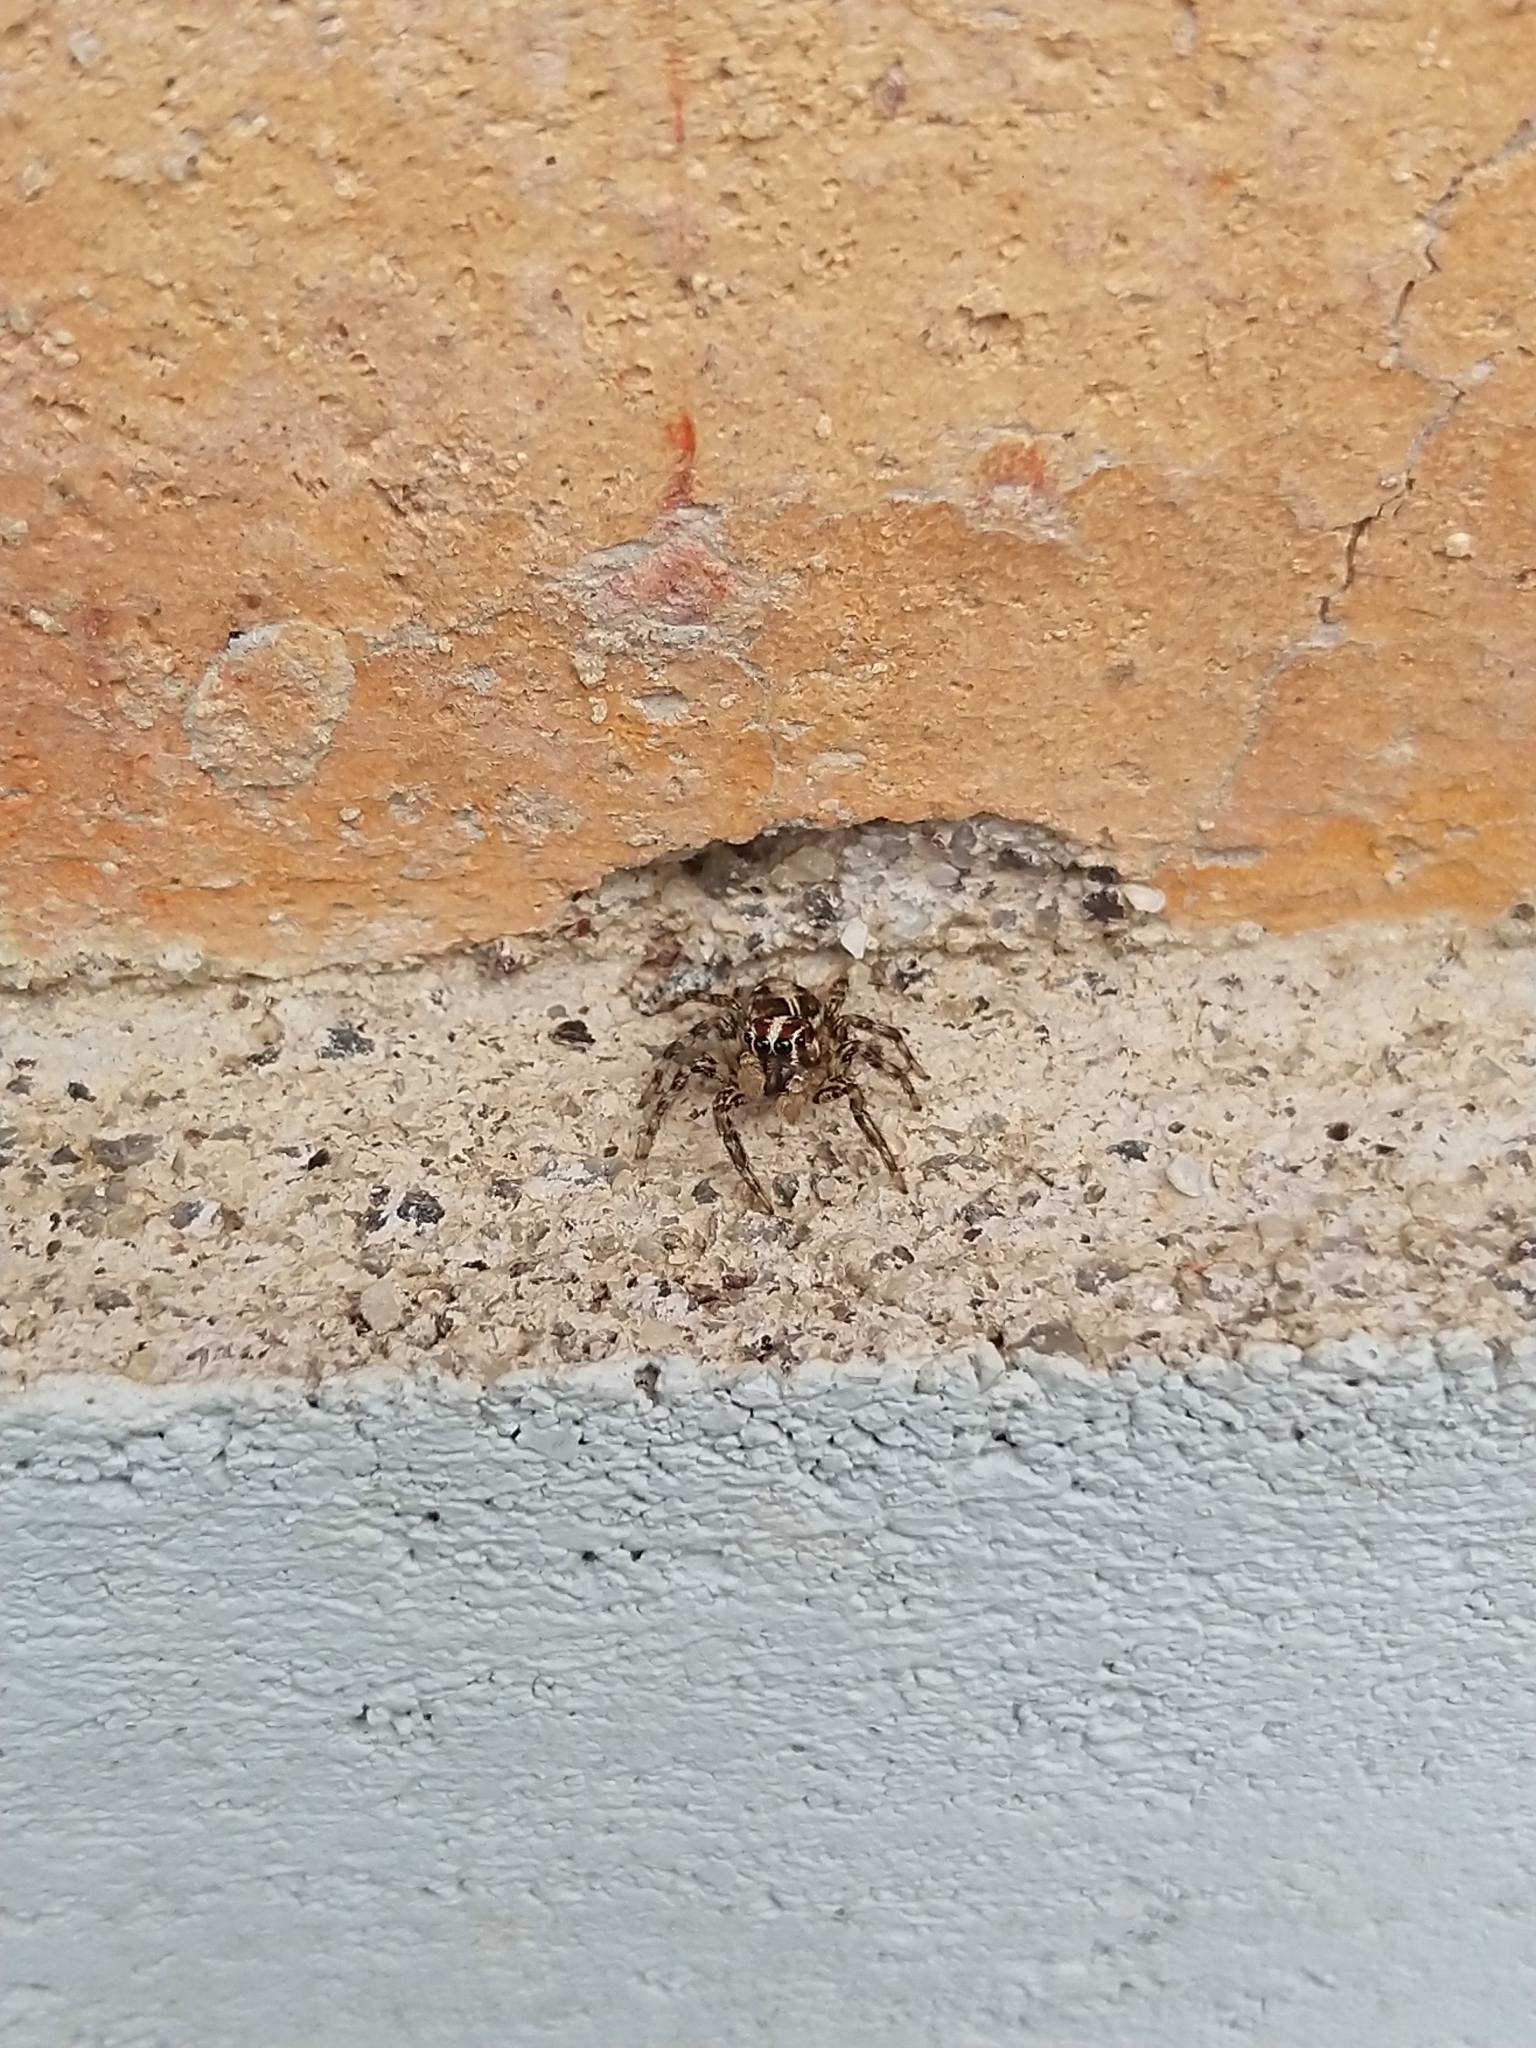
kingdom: Animalia
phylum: Arthropoda
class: Arachnida
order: Araneae
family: Salticidae
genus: Plexippus
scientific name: Plexippus paykulli
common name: Pantropical jumper
